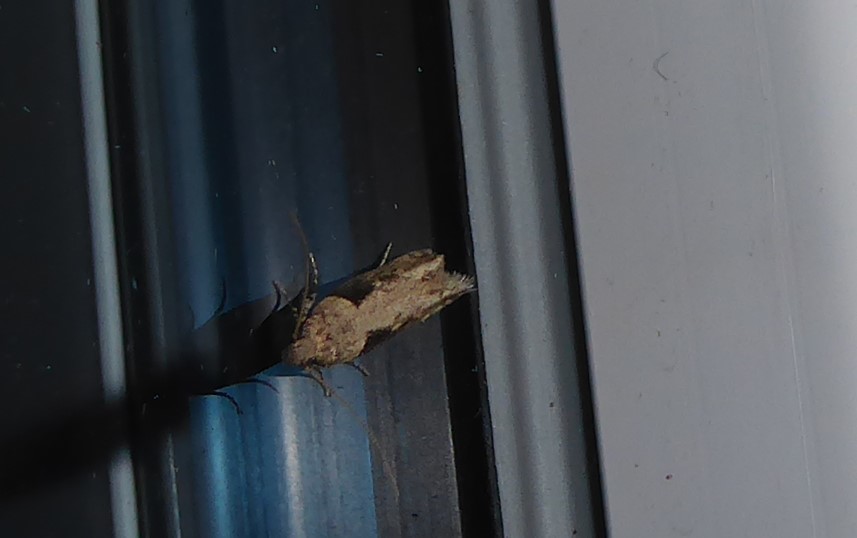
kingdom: Animalia
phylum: Arthropoda
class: Insecta
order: Lepidoptera
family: Gelechiidae
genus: Symmetrischema
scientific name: Symmetrischema tangolias
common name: Moth
